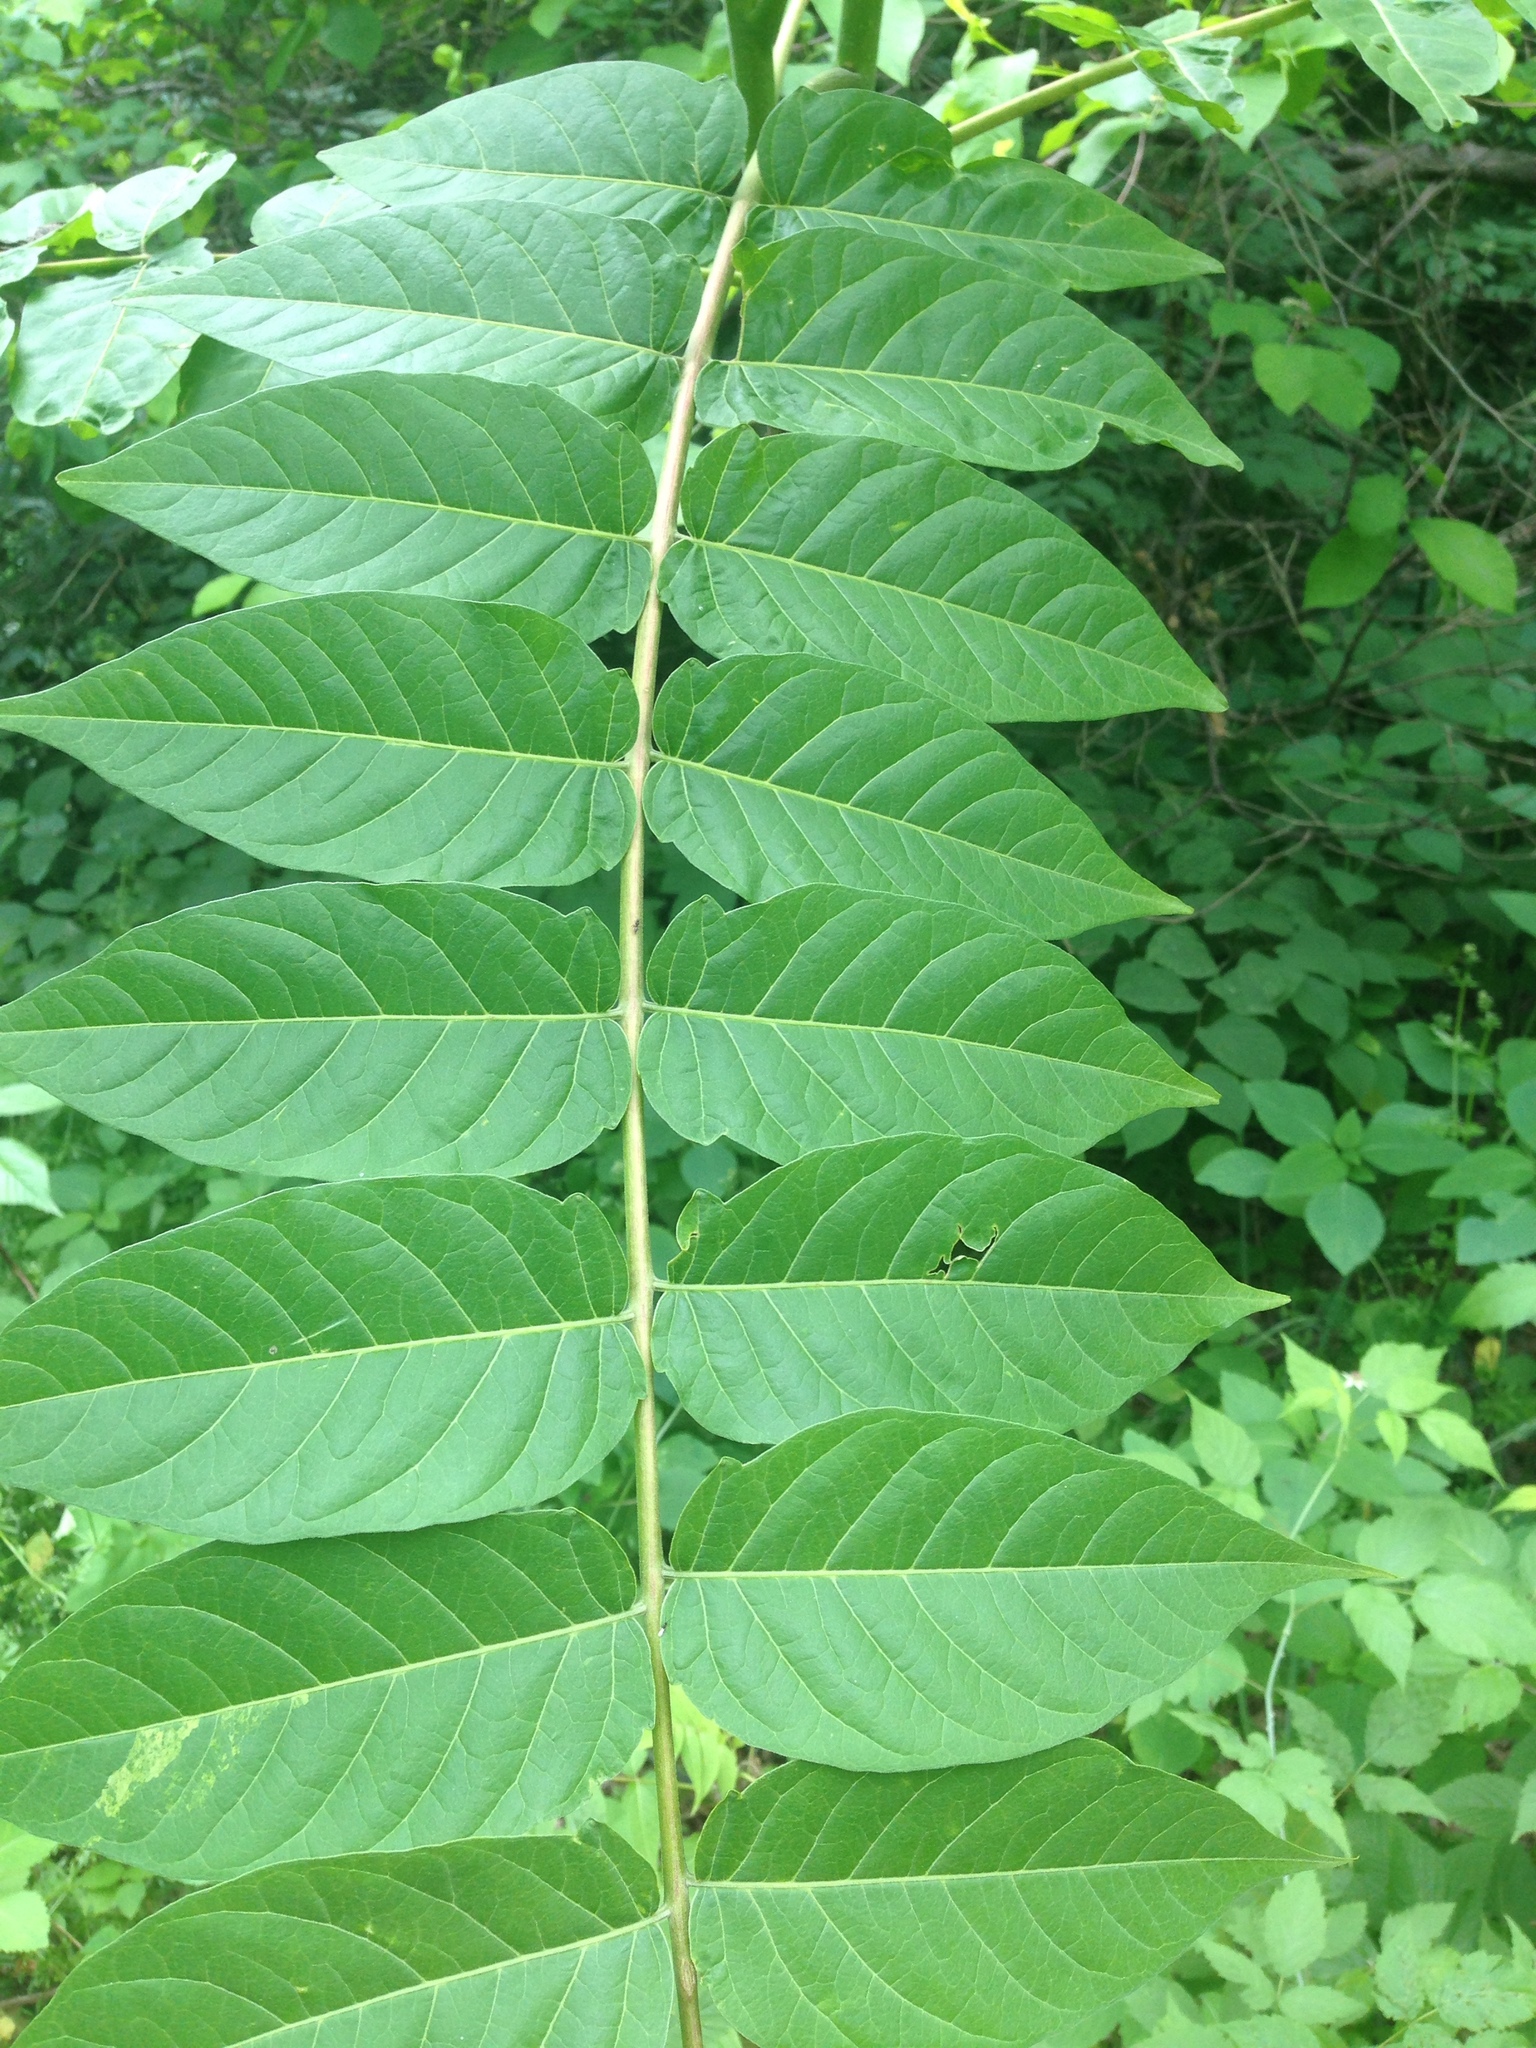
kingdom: Plantae
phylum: Tracheophyta
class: Magnoliopsida
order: Sapindales
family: Simaroubaceae
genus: Ailanthus
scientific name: Ailanthus altissima
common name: Tree-of-heaven
